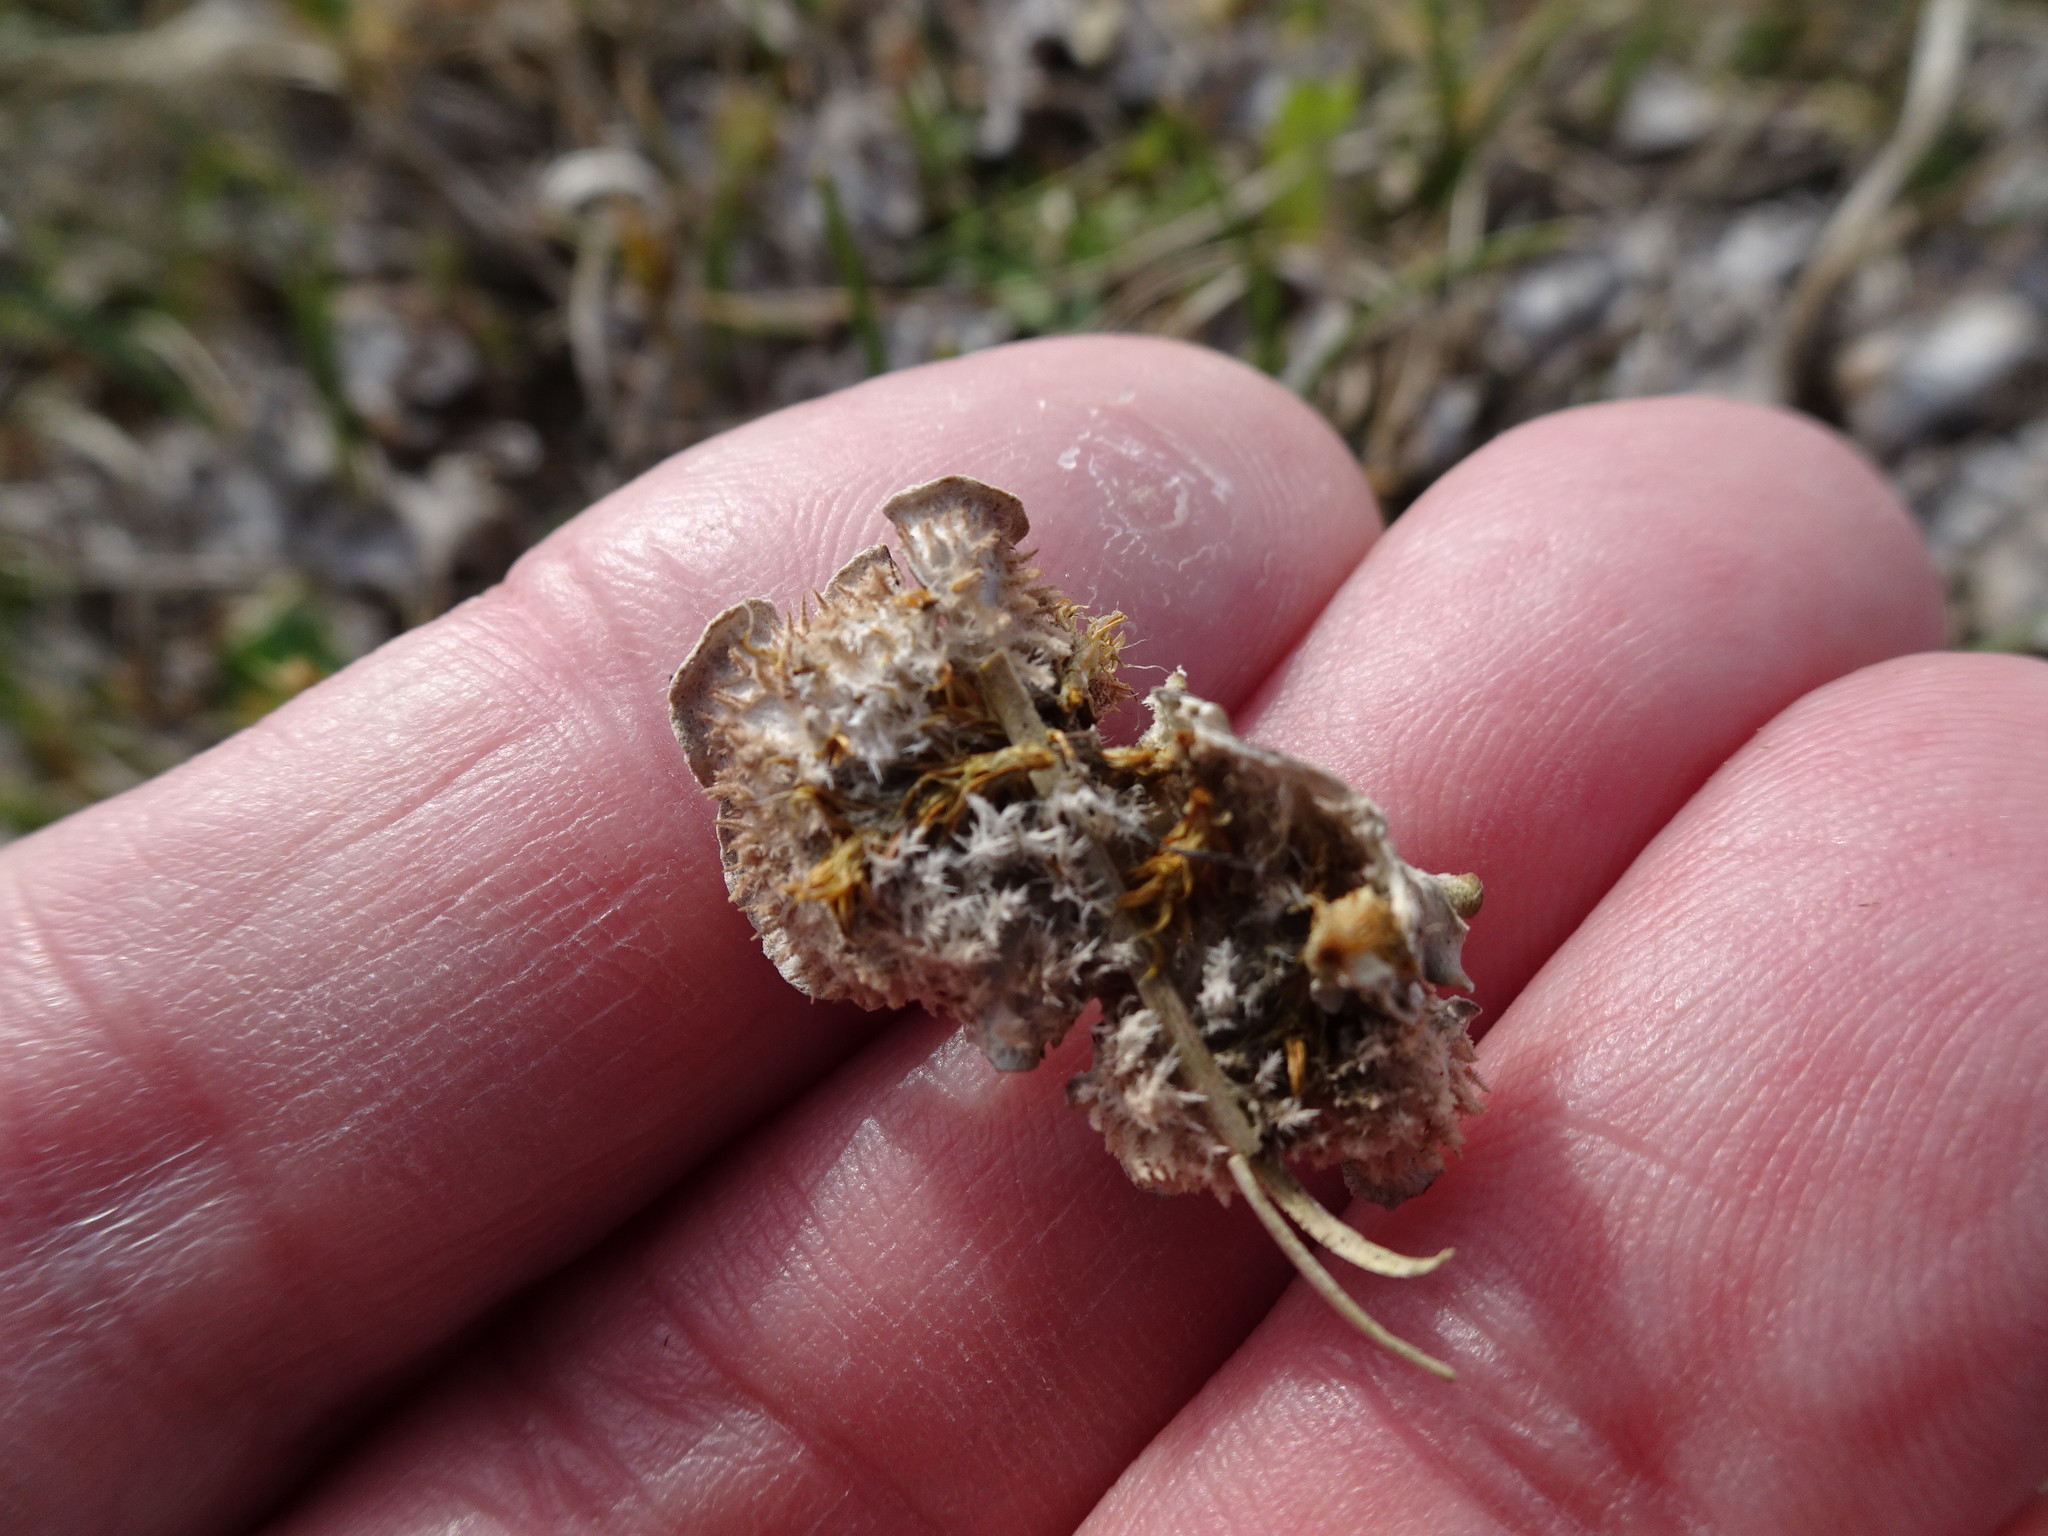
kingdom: Fungi
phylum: Ascomycota
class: Lecanoromycetes
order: Peltigerales
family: Peltigeraceae
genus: Peltigera
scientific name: Peltigera rufescens
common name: Field dog lichen
